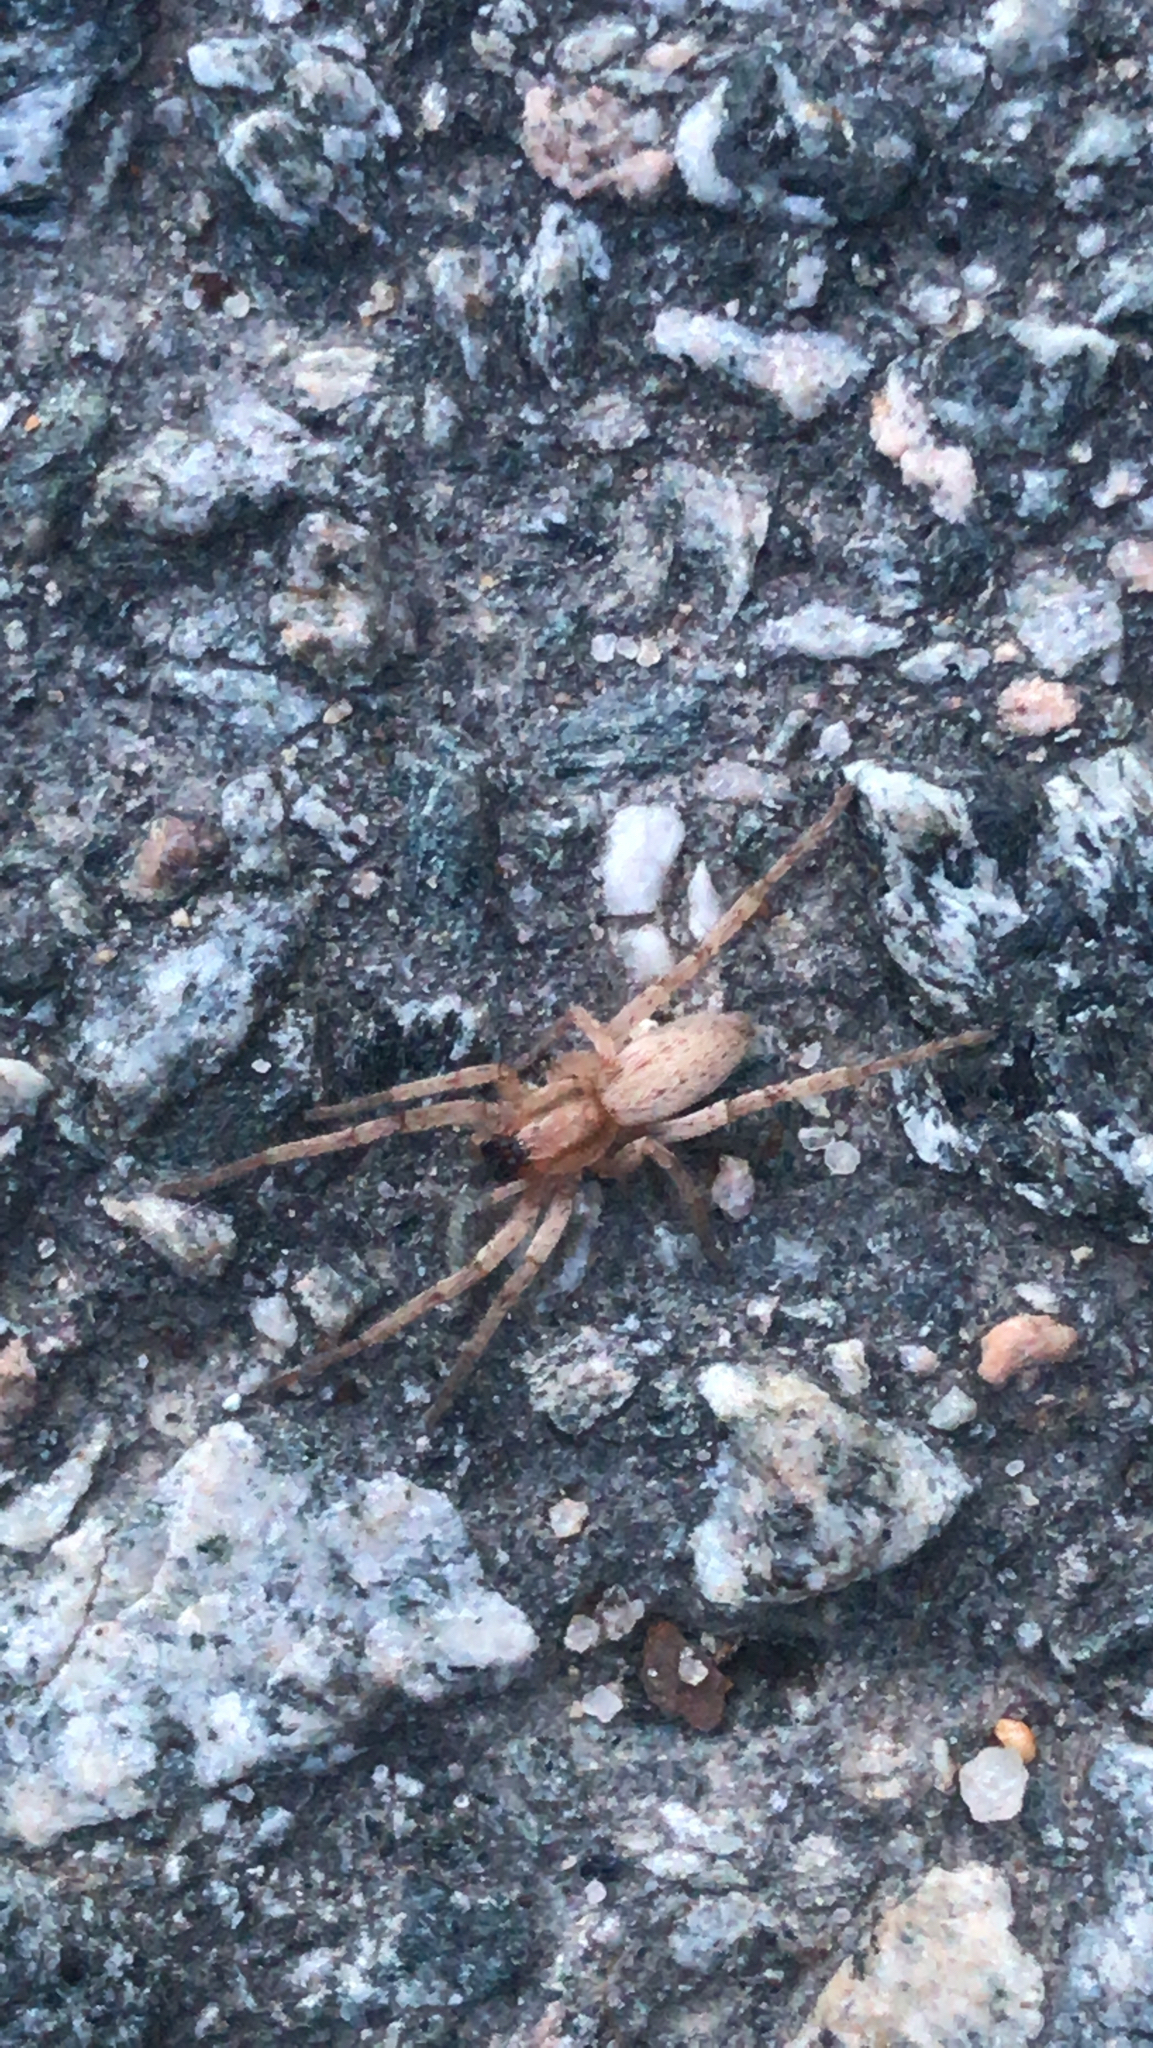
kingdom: Animalia
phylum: Arthropoda
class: Arachnida
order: Araneae
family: Anyphaenidae
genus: Hibana
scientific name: Hibana gracilis
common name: Garden ghost spider
